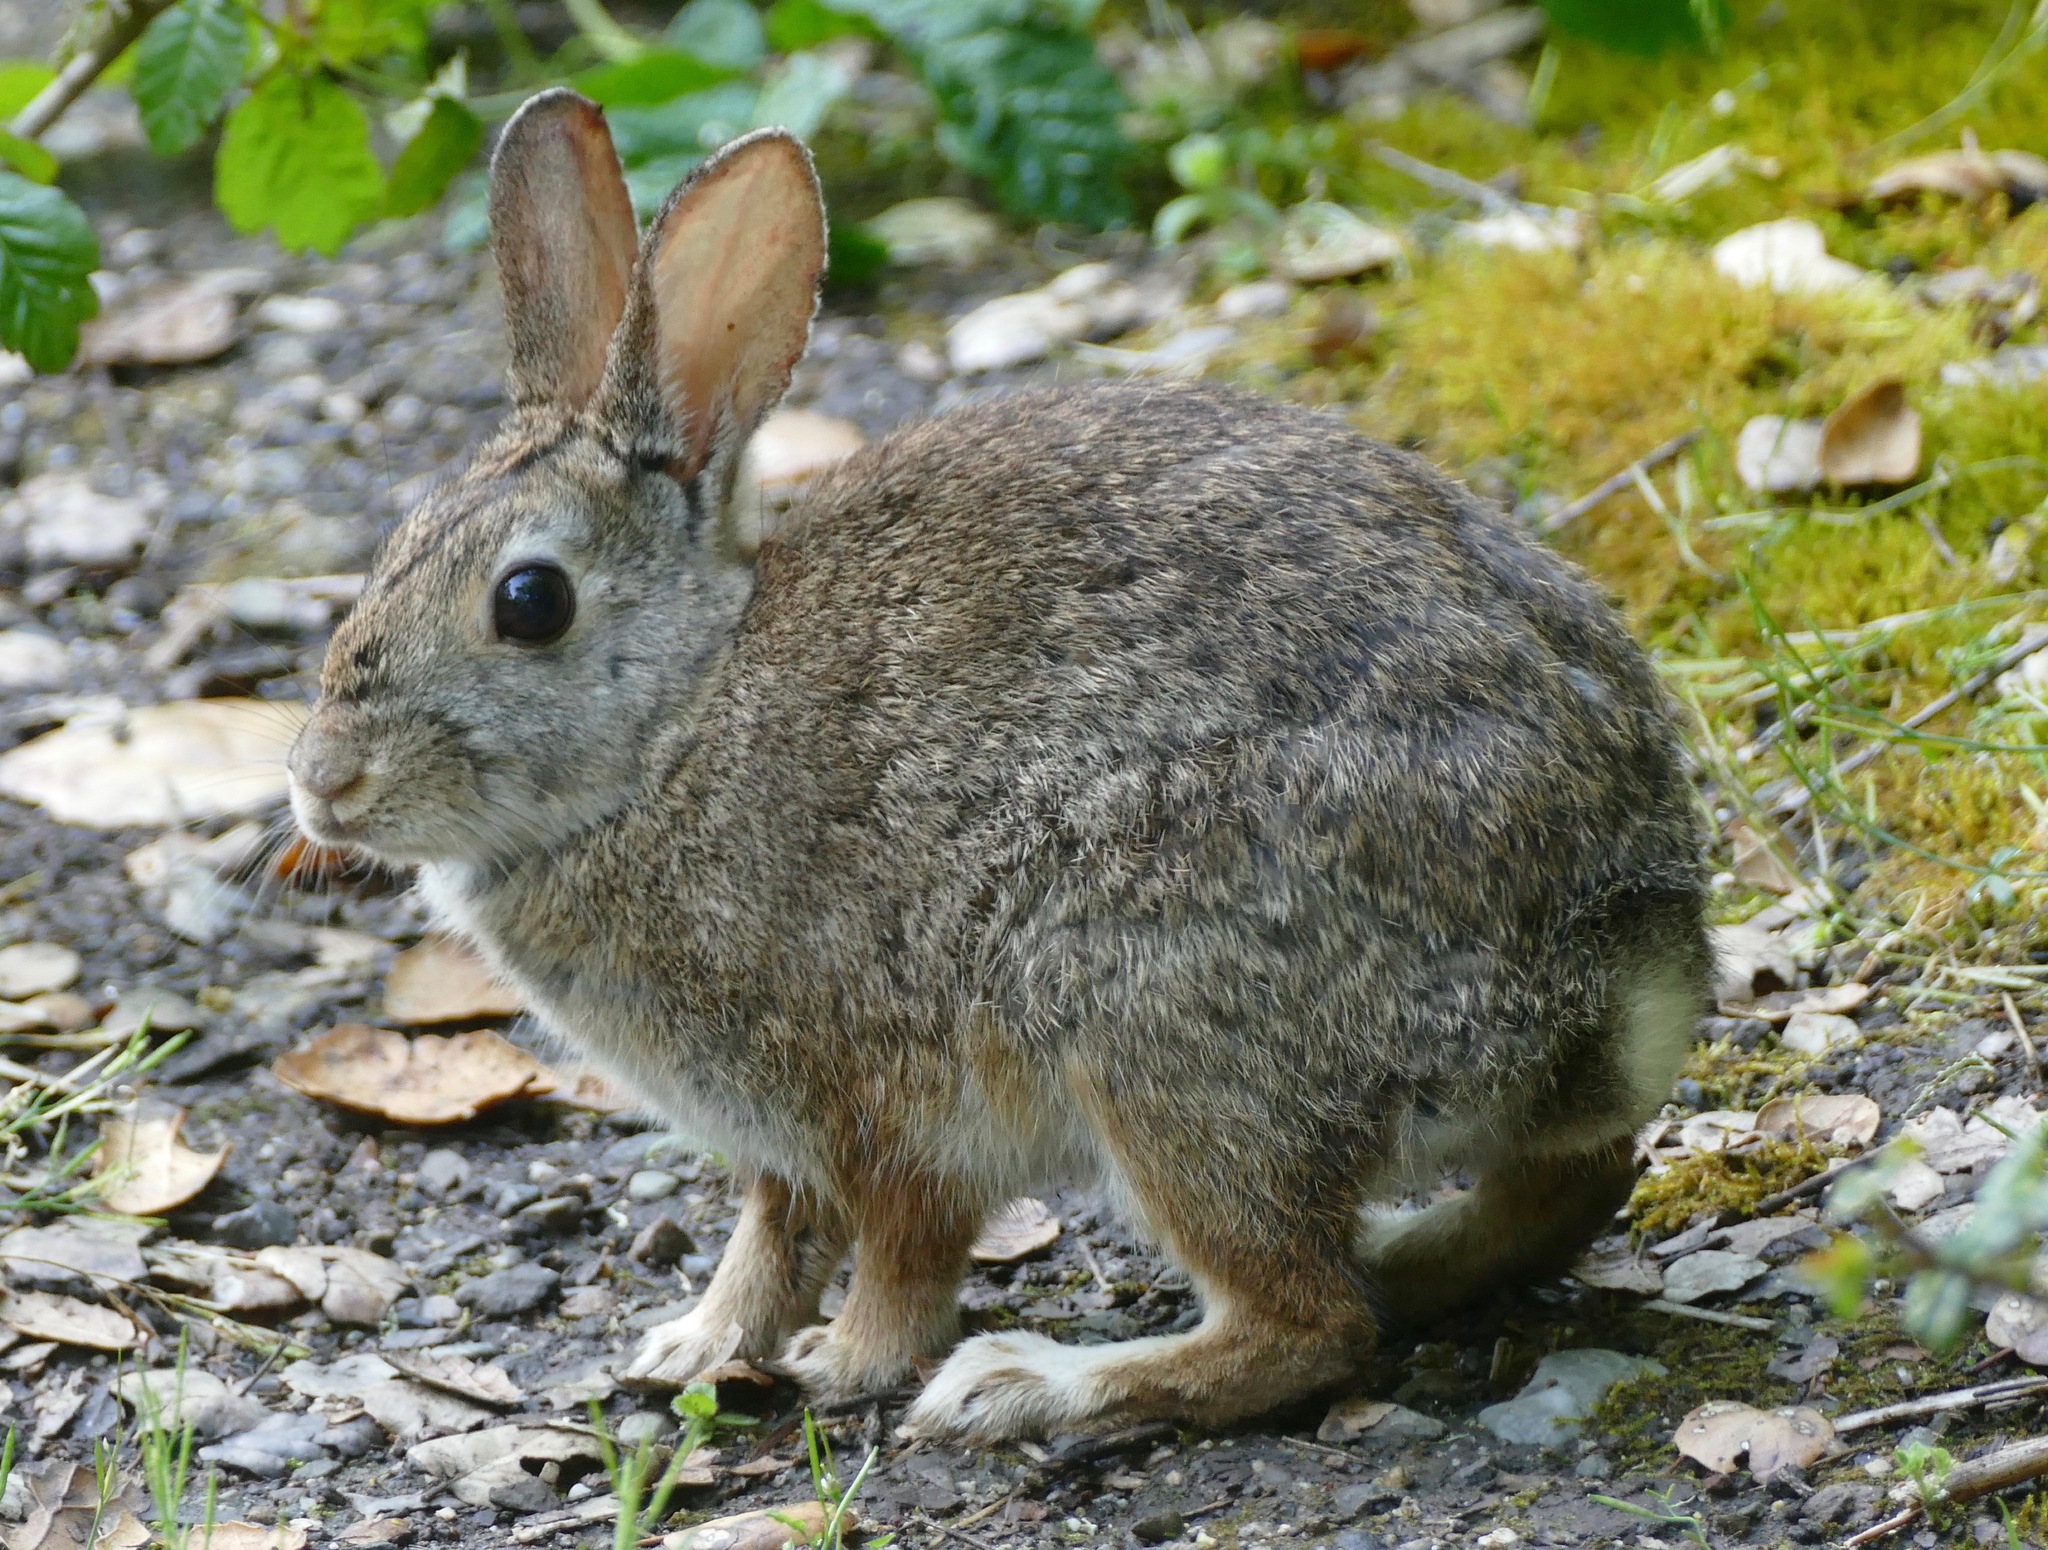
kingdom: Animalia
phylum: Chordata
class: Mammalia
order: Lagomorpha
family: Leporidae
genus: Sylvilagus
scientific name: Sylvilagus bachmani
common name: Brush rabbit
